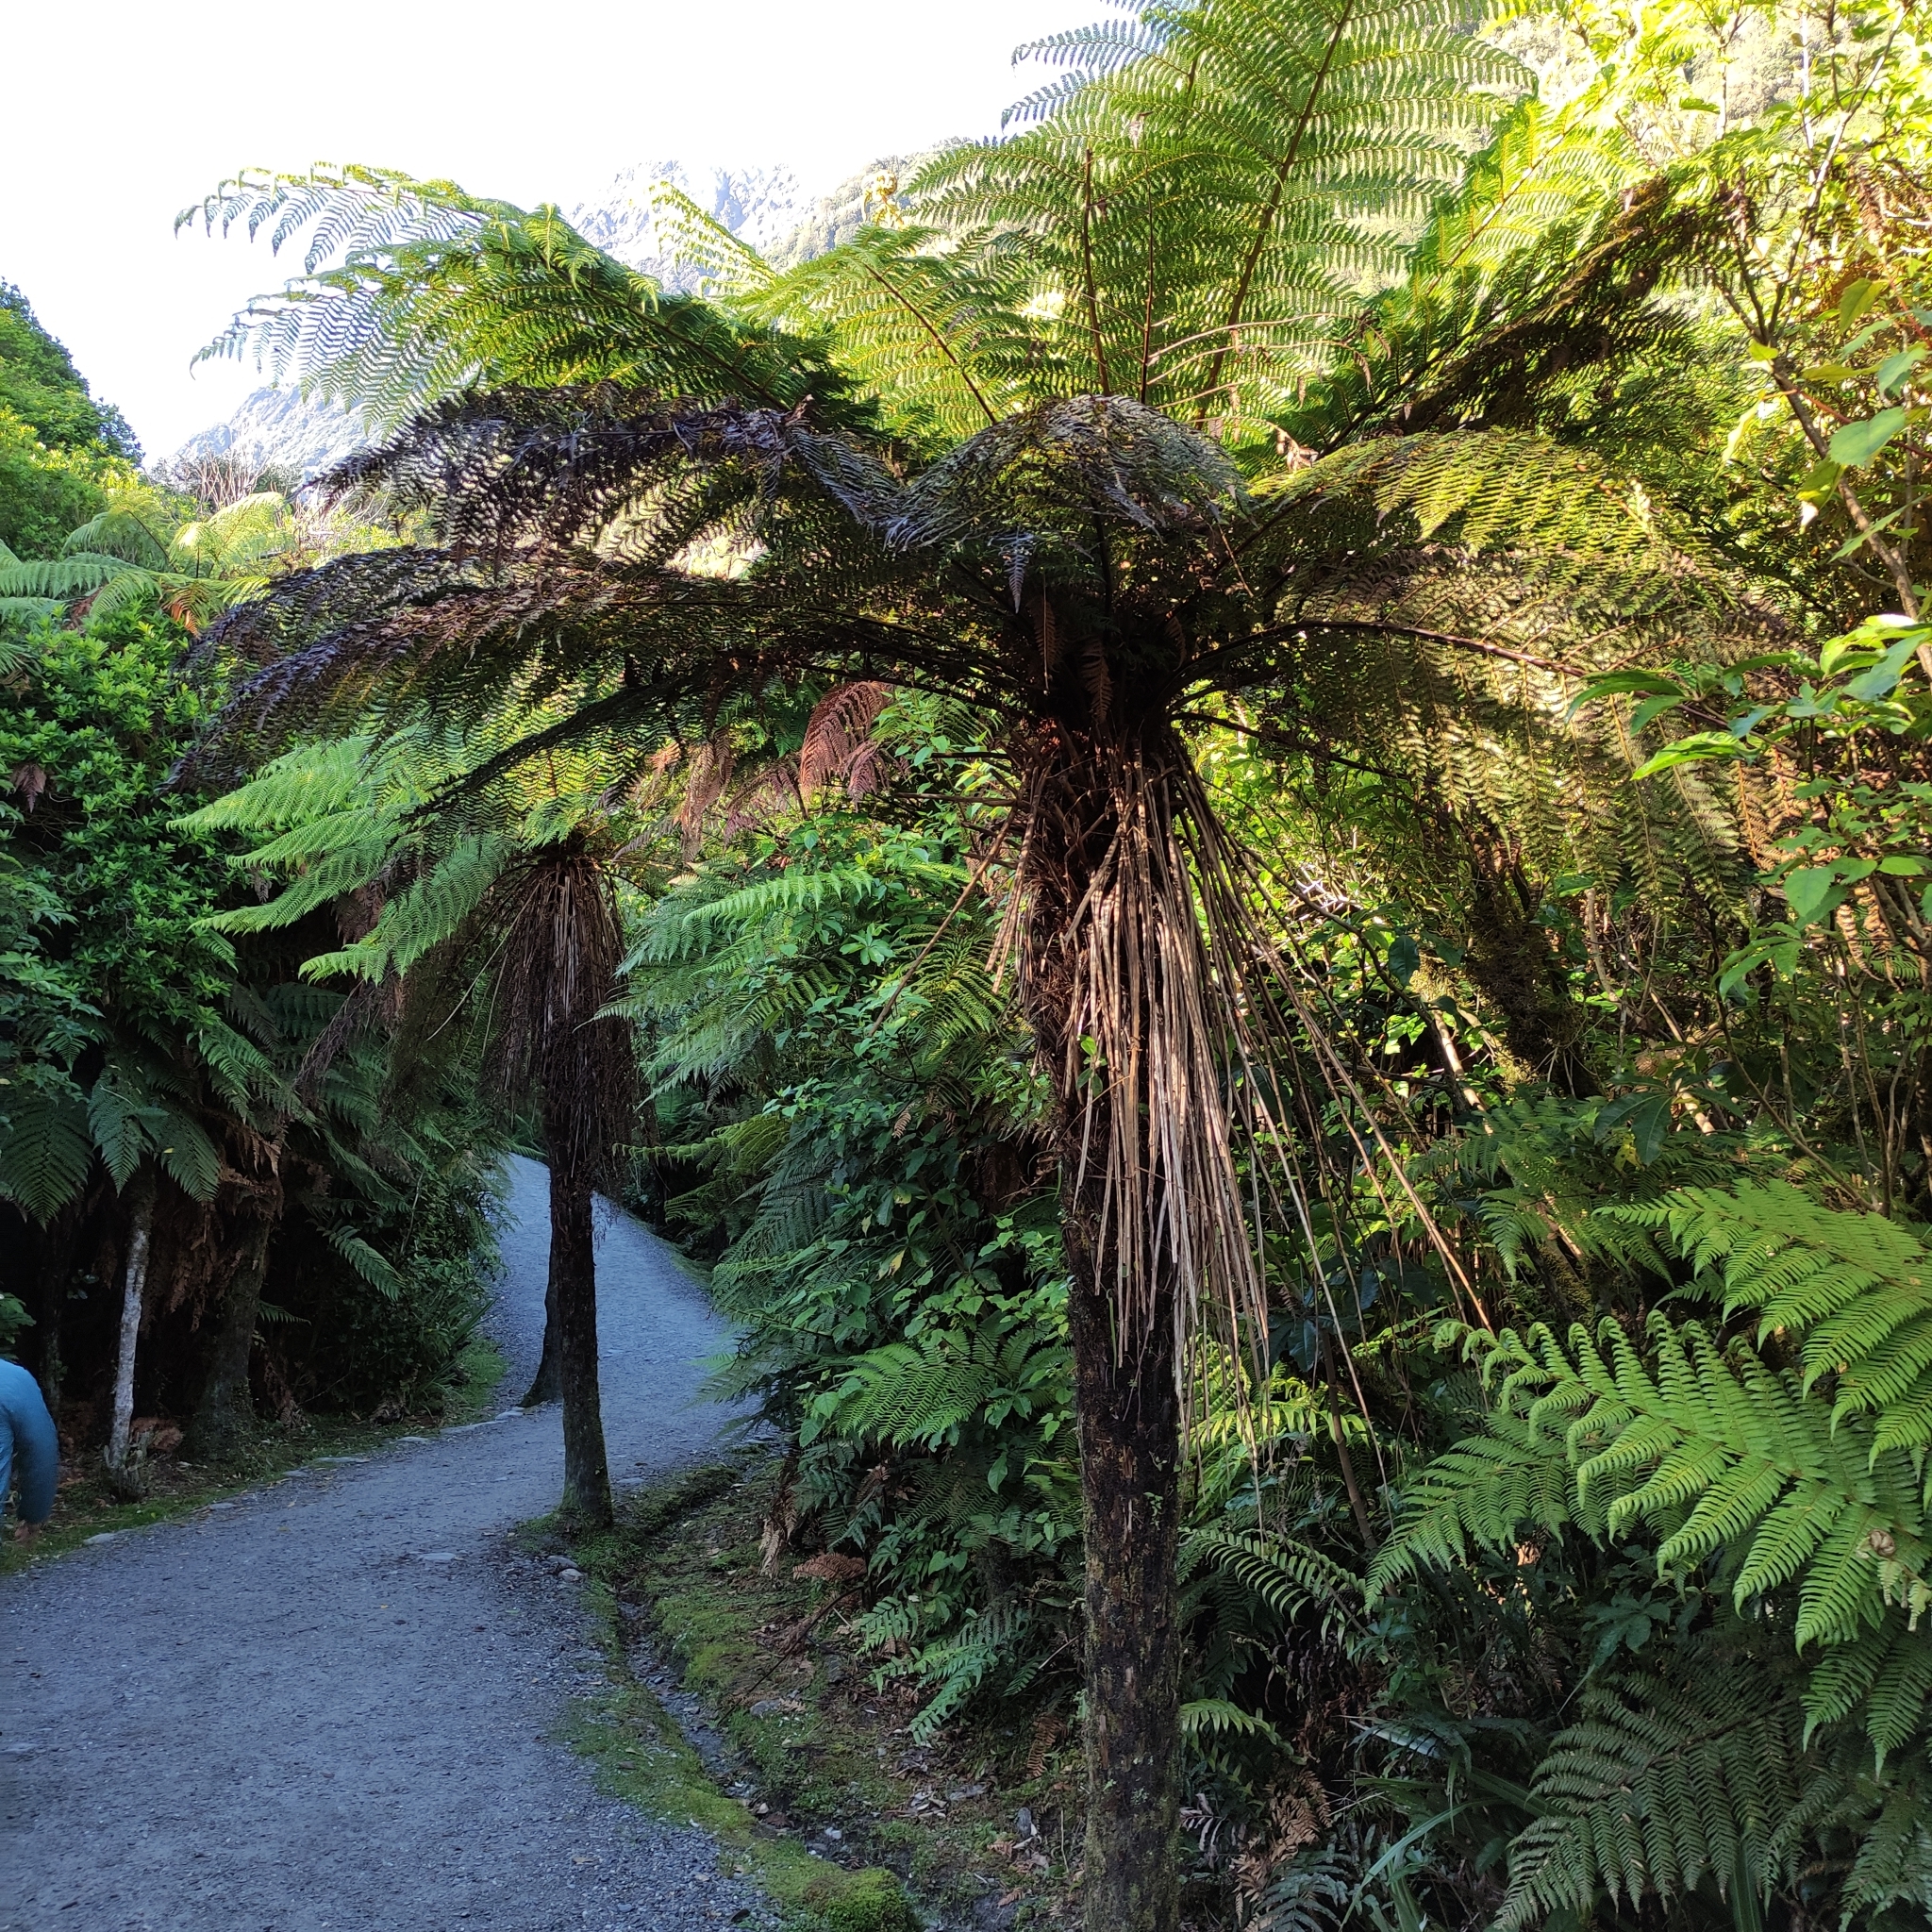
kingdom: Plantae
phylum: Tracheophyta
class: Polypodiopsida
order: Cyatheales
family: Cyatheaceae
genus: Alsophila
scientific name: Alsophila smithii
